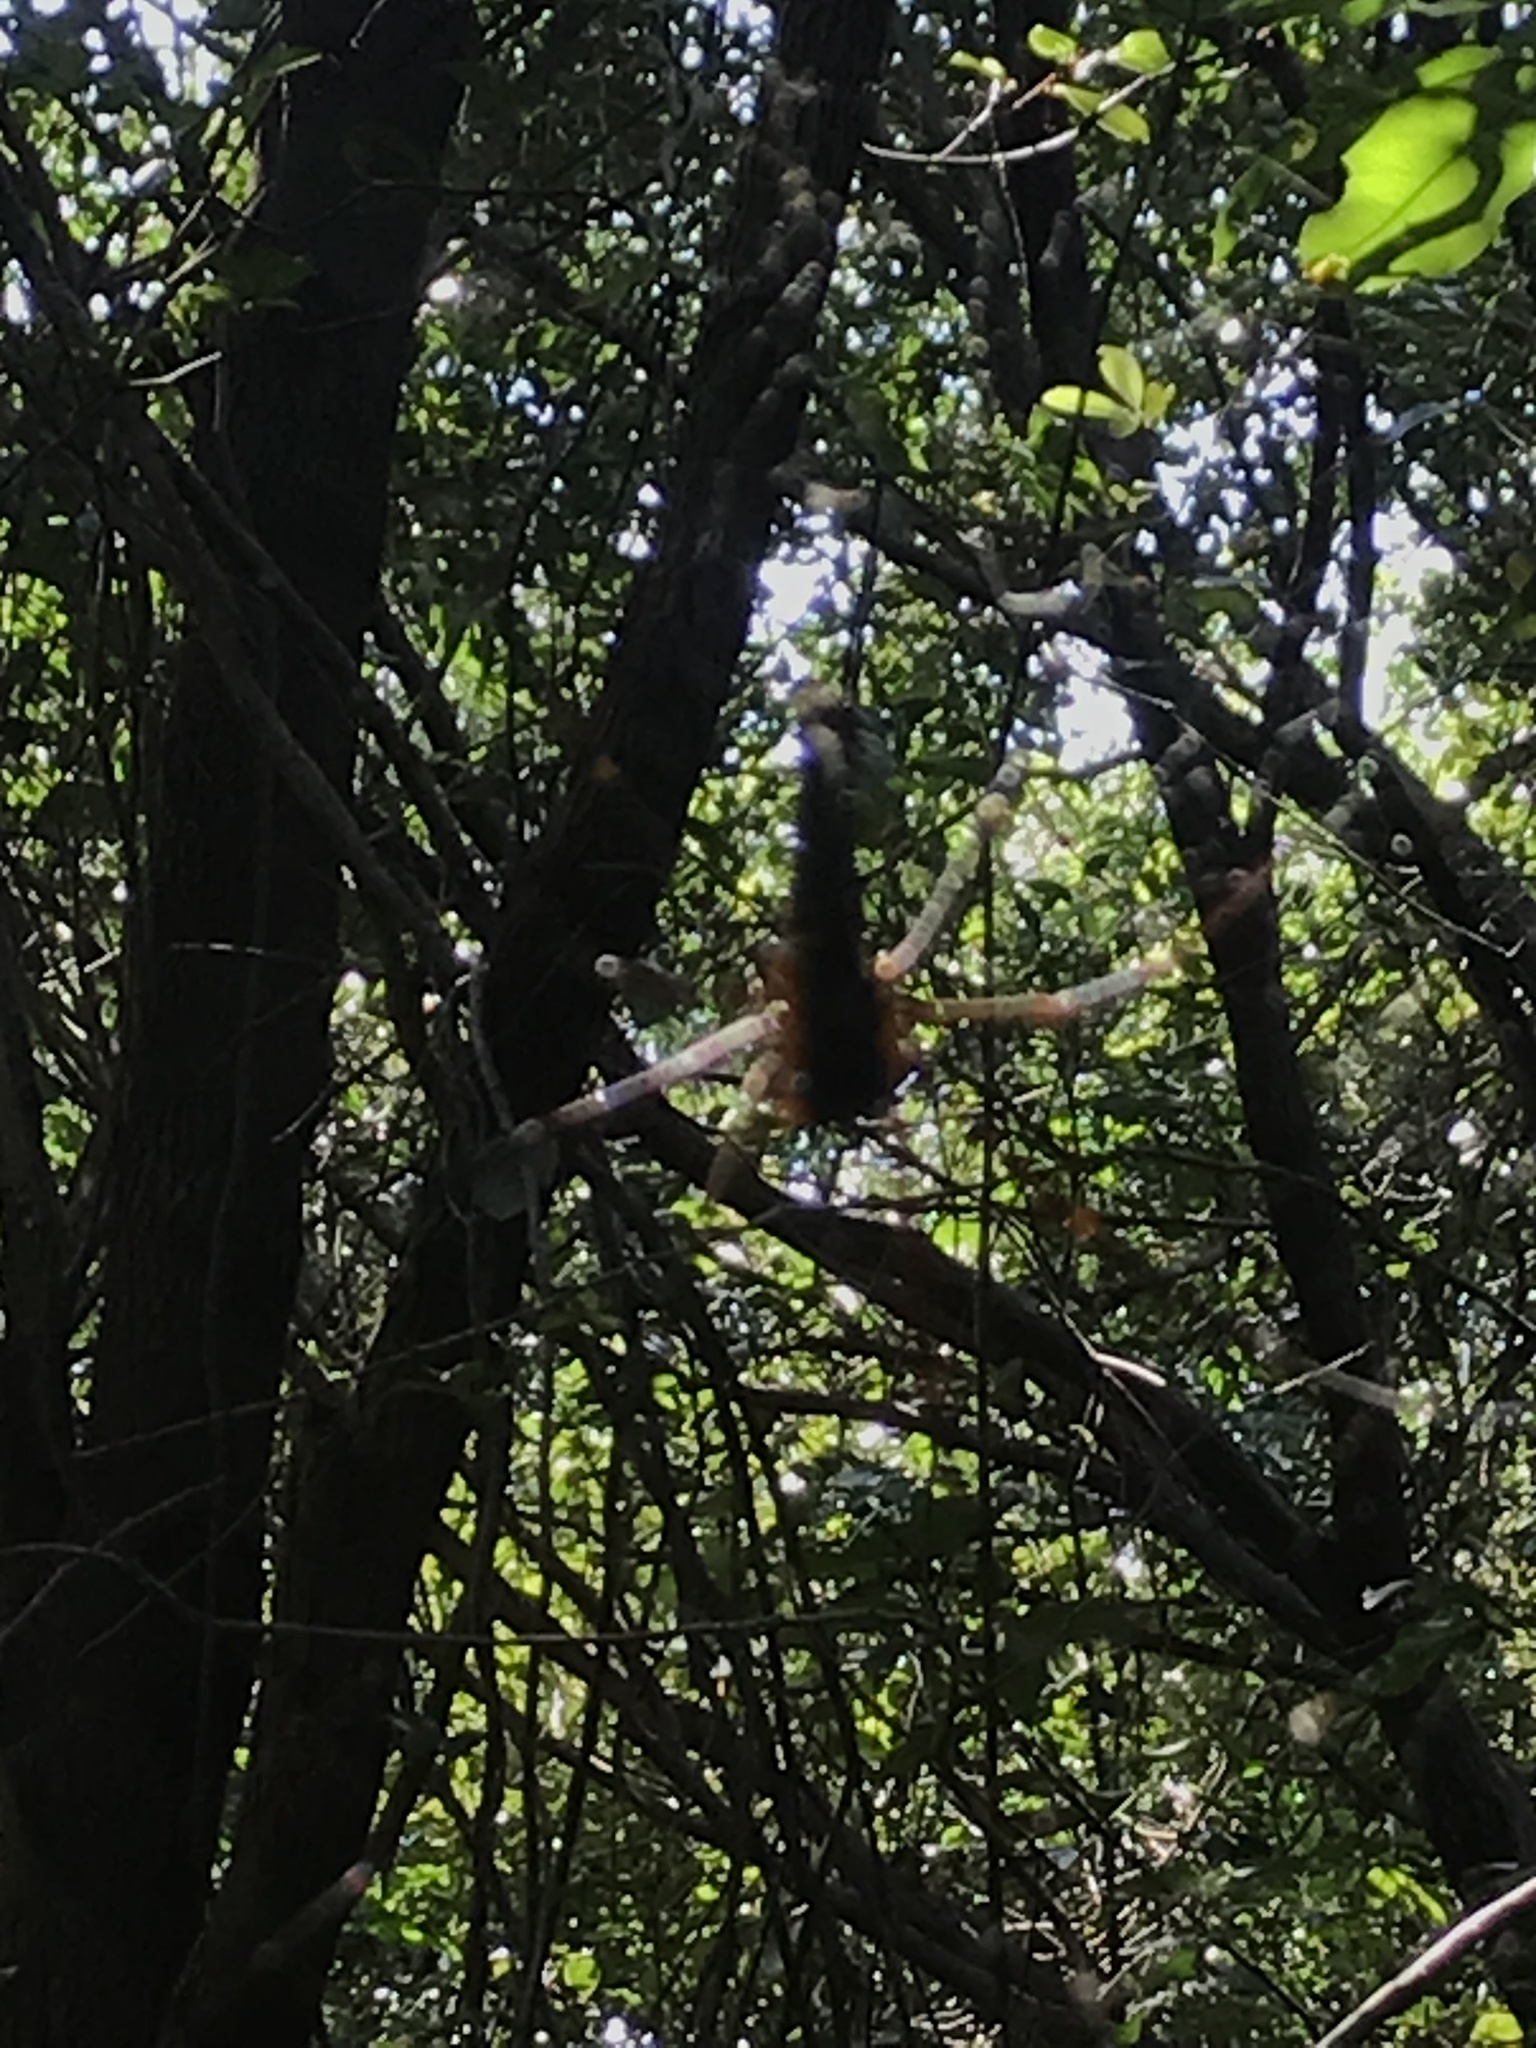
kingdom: Animalia
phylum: Arthropoda
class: Arachnida
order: Araneae
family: Araneidae
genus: Nephila
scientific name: Nephila pilipes
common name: Giant golden orb weaver
